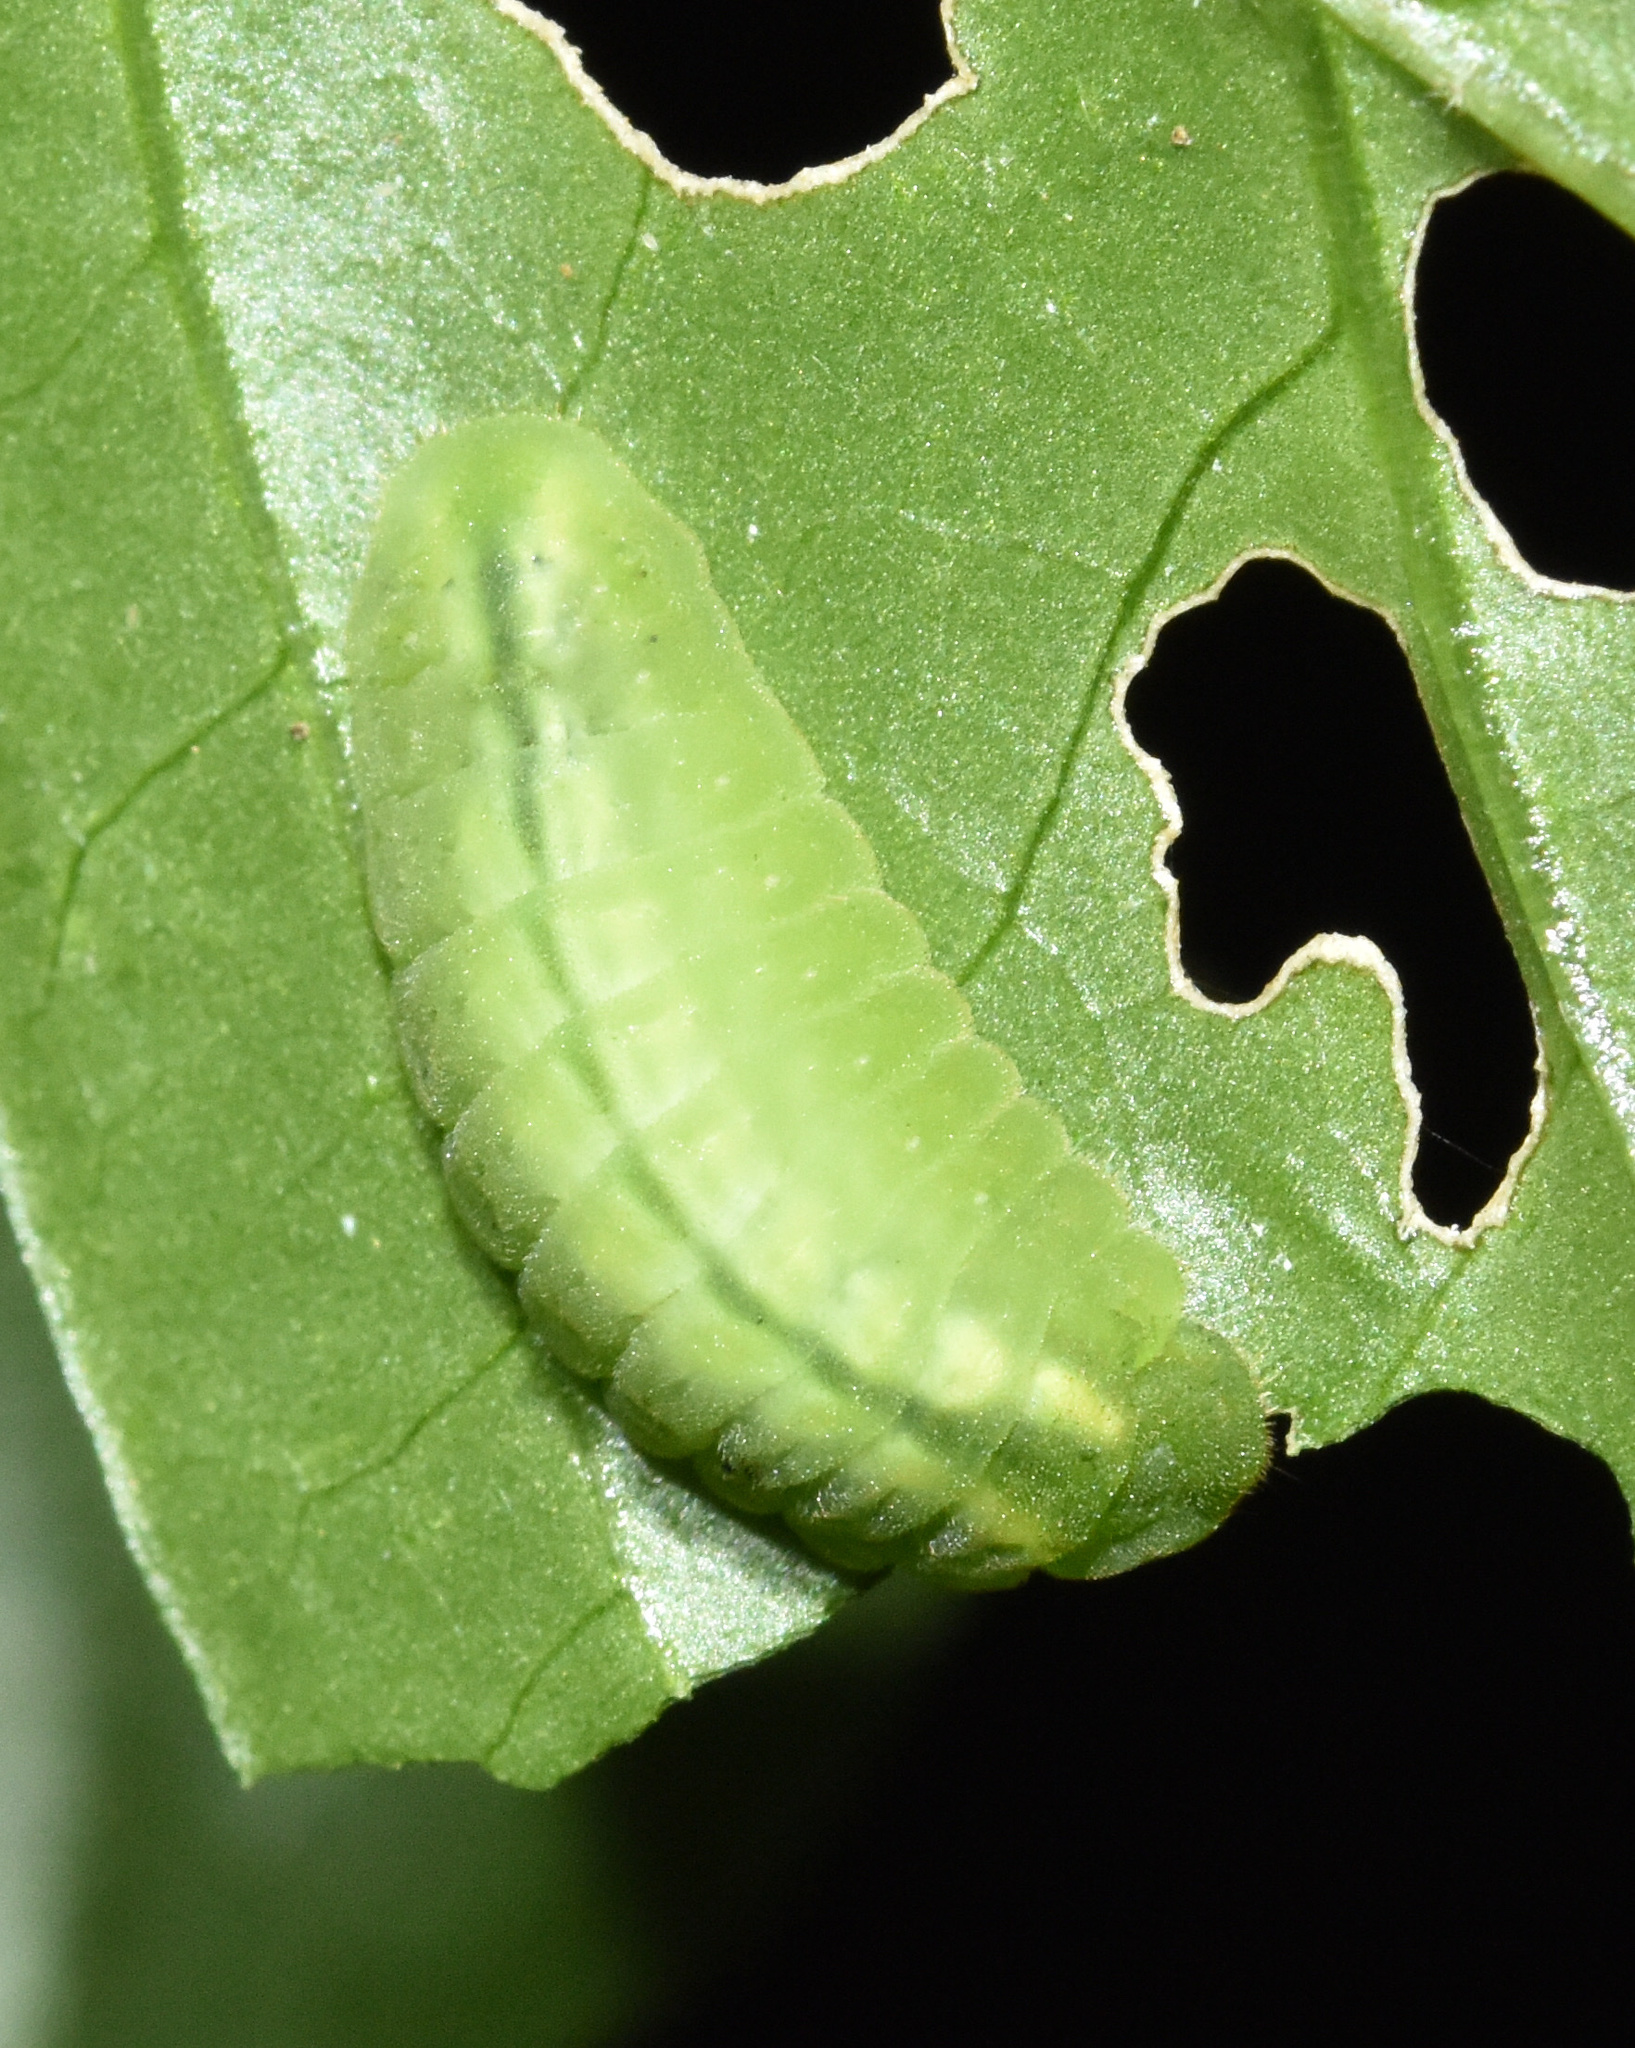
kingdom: Animalia
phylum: Arthropoda
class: Insecta
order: Lepidoptera
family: Lycaenidae
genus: Anthene
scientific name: Anthene lemnos
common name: Large ciliate blue
